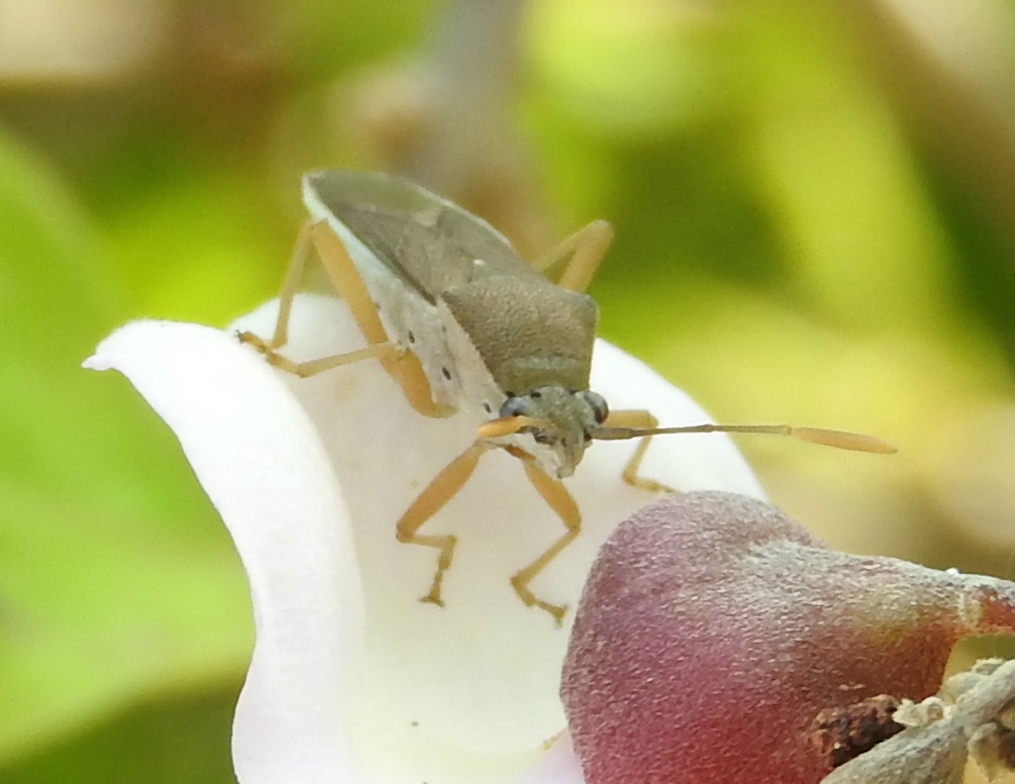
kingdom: Animalia
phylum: Arthropoda
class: Insecta
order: Hemiptera
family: Coreidae
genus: Catorhintha
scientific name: Catorhintha
